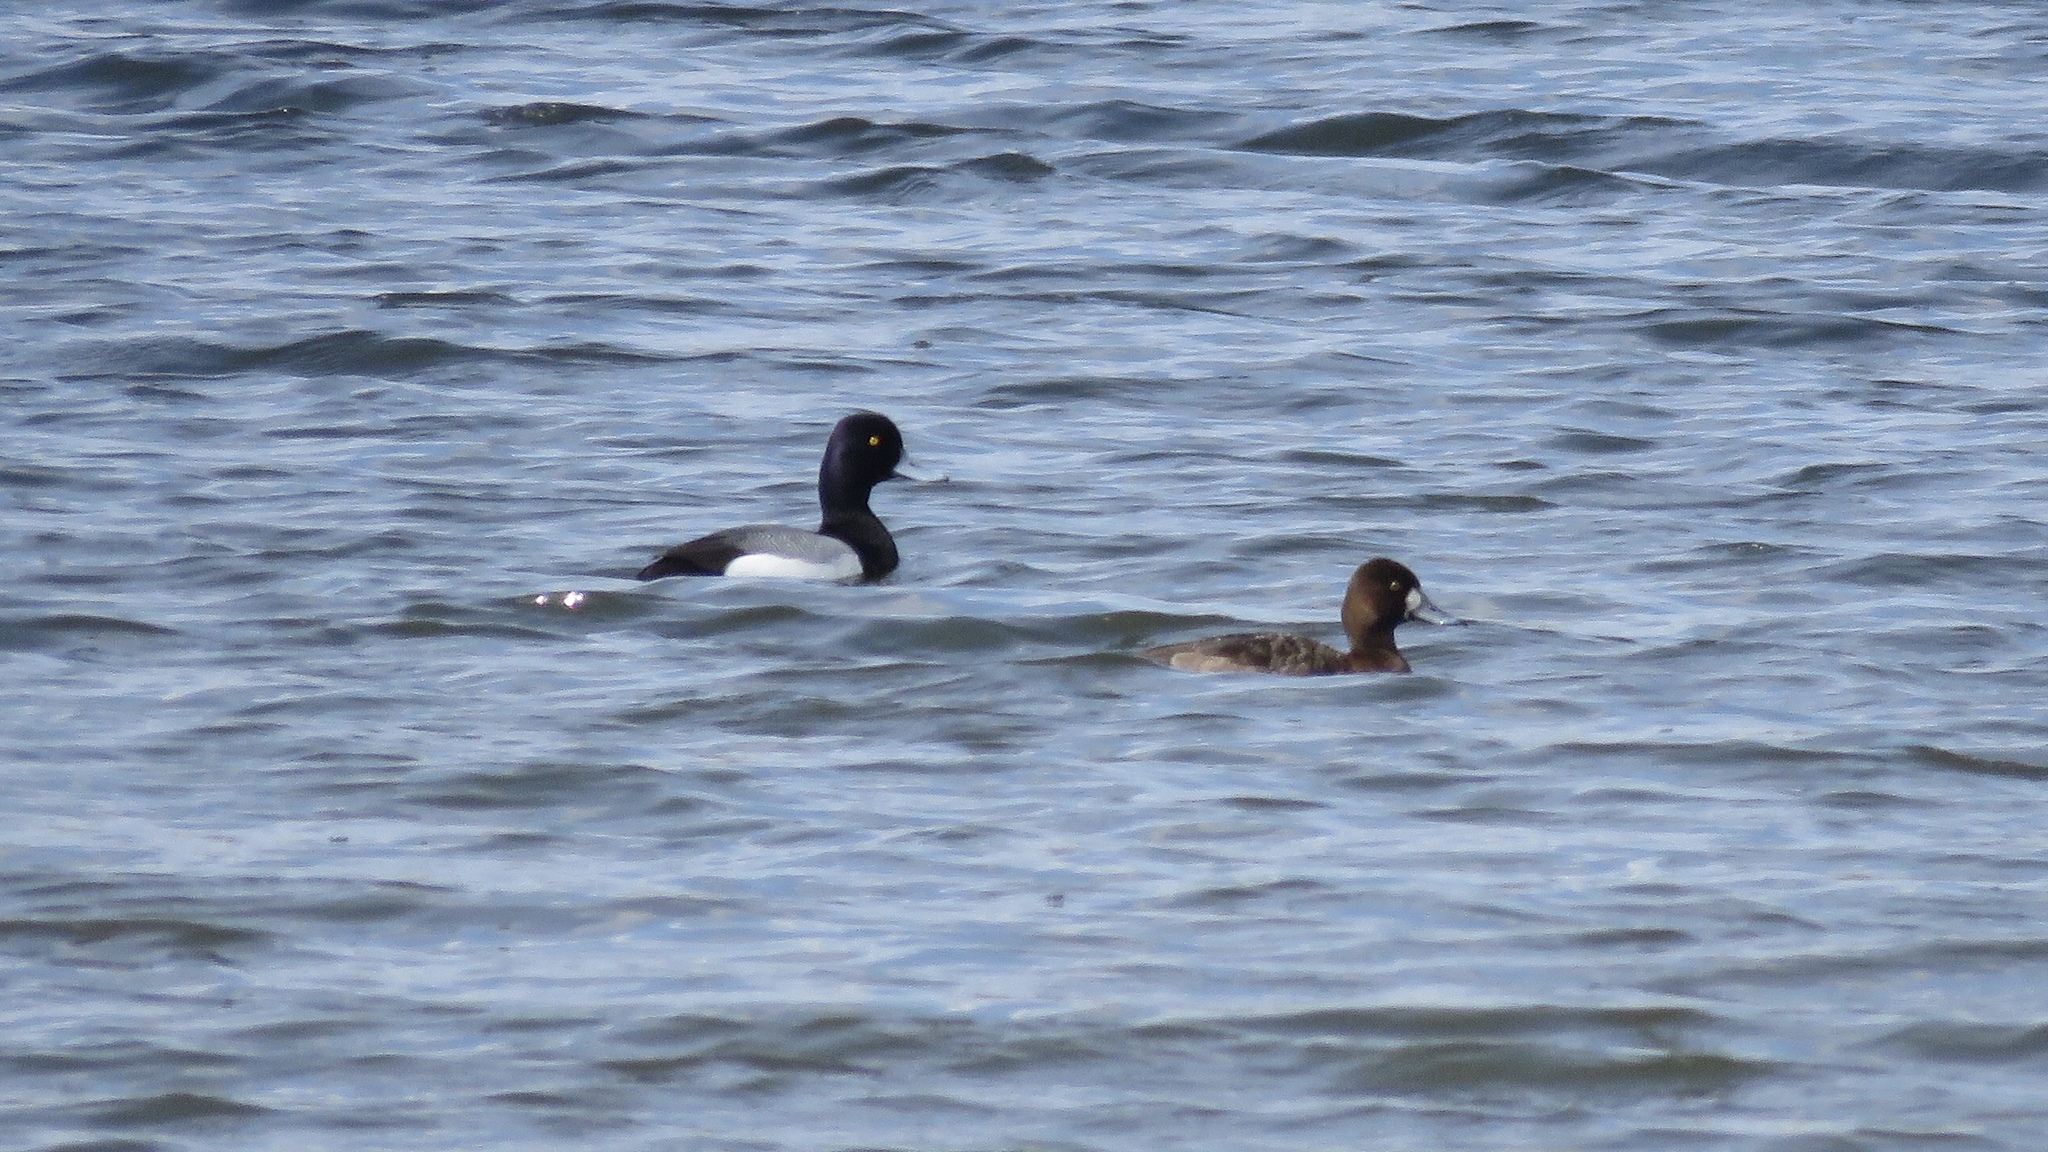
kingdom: Animalia
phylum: Chordata
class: Aves
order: Anseriformes
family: Anatidae
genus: Aythya
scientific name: Aythya affinis
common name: Lesser scaup
